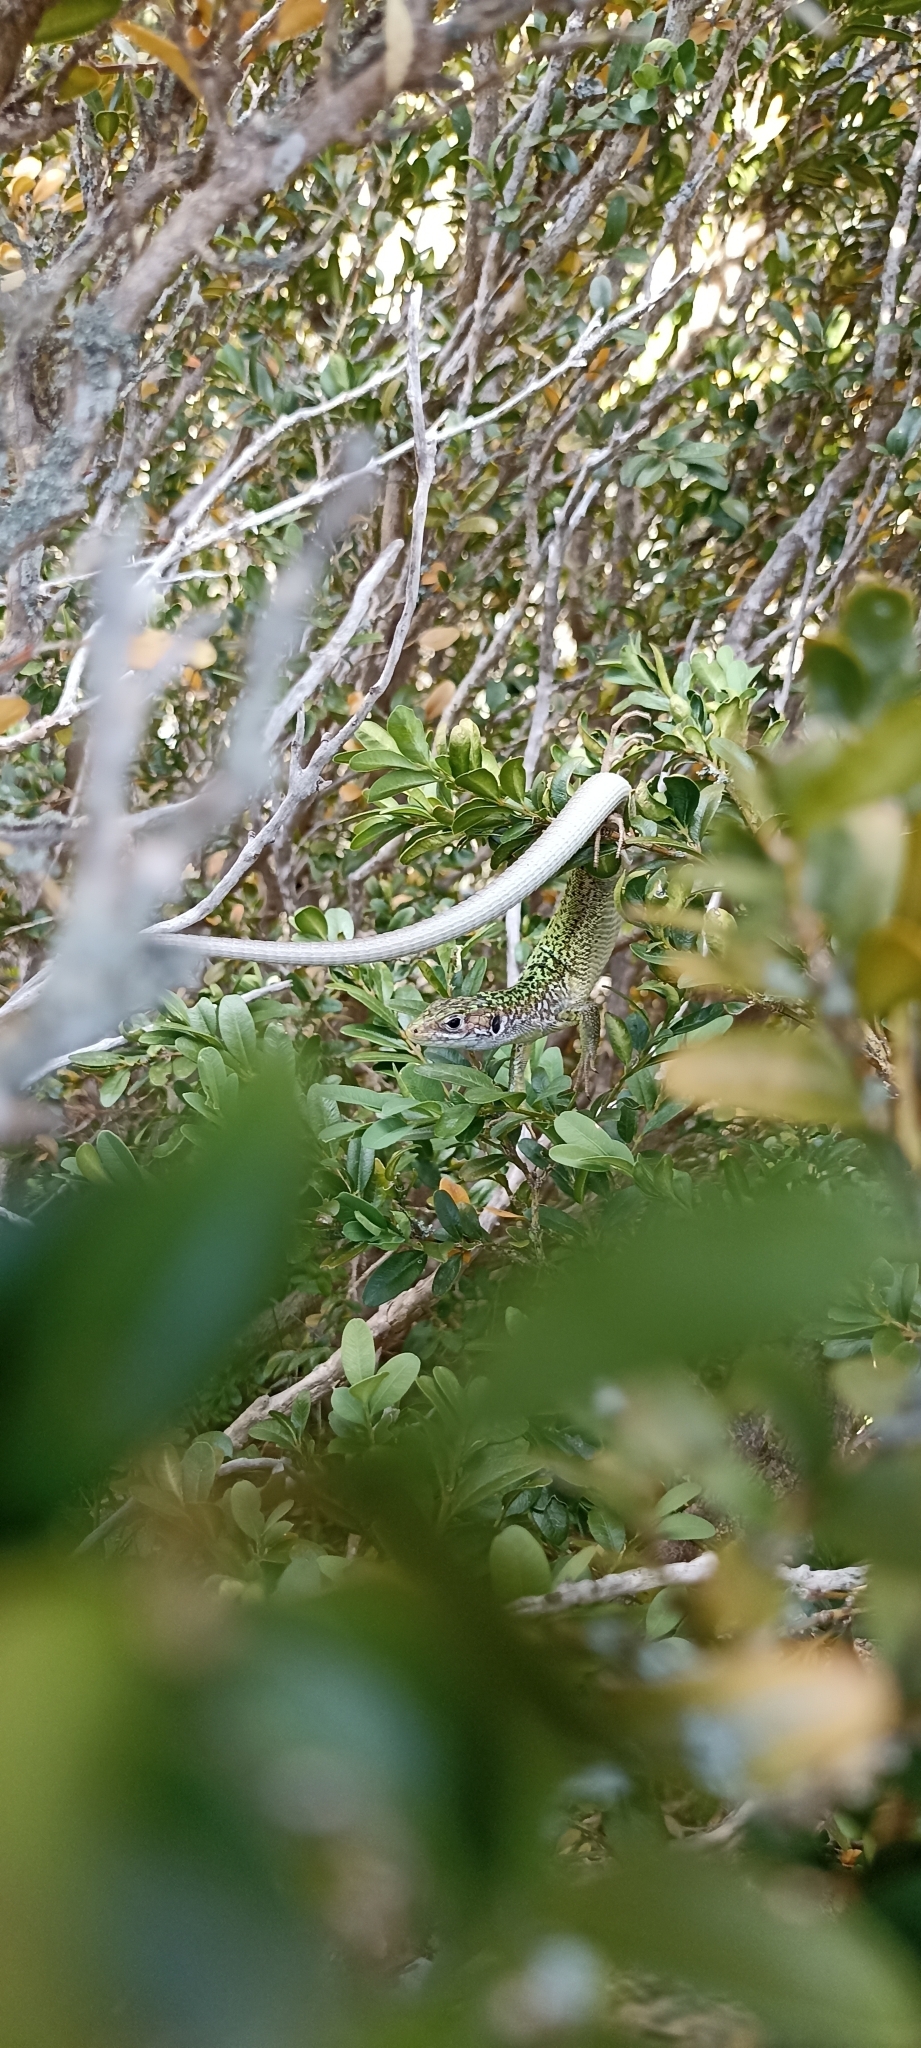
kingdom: Animalia
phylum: Chordata
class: Squamata
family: Lacertidae
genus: Lacerta
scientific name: Lacerta bilineata
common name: Western green lizard
